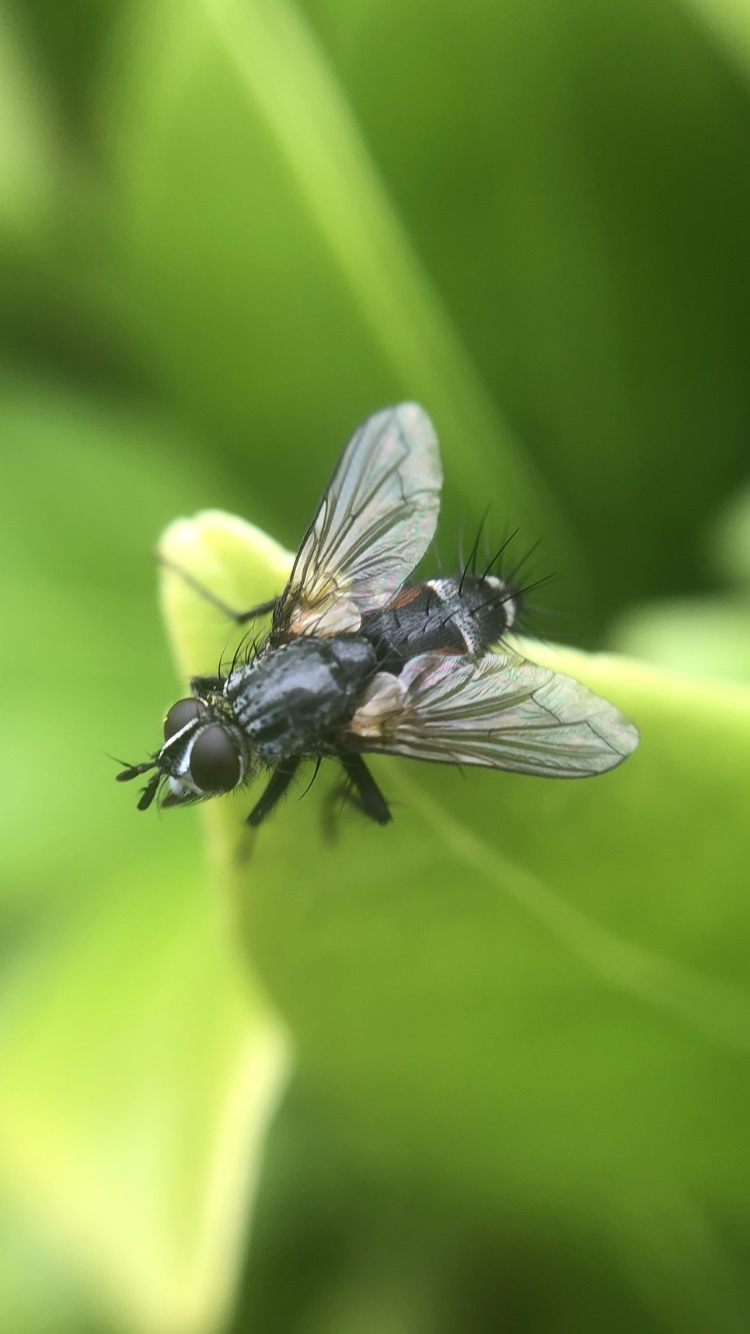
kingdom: Animalia
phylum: Arthropoda
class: Insecta
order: Diptera
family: Tachinidae
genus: Eriothrix
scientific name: Eriothrix rufomaculatus
